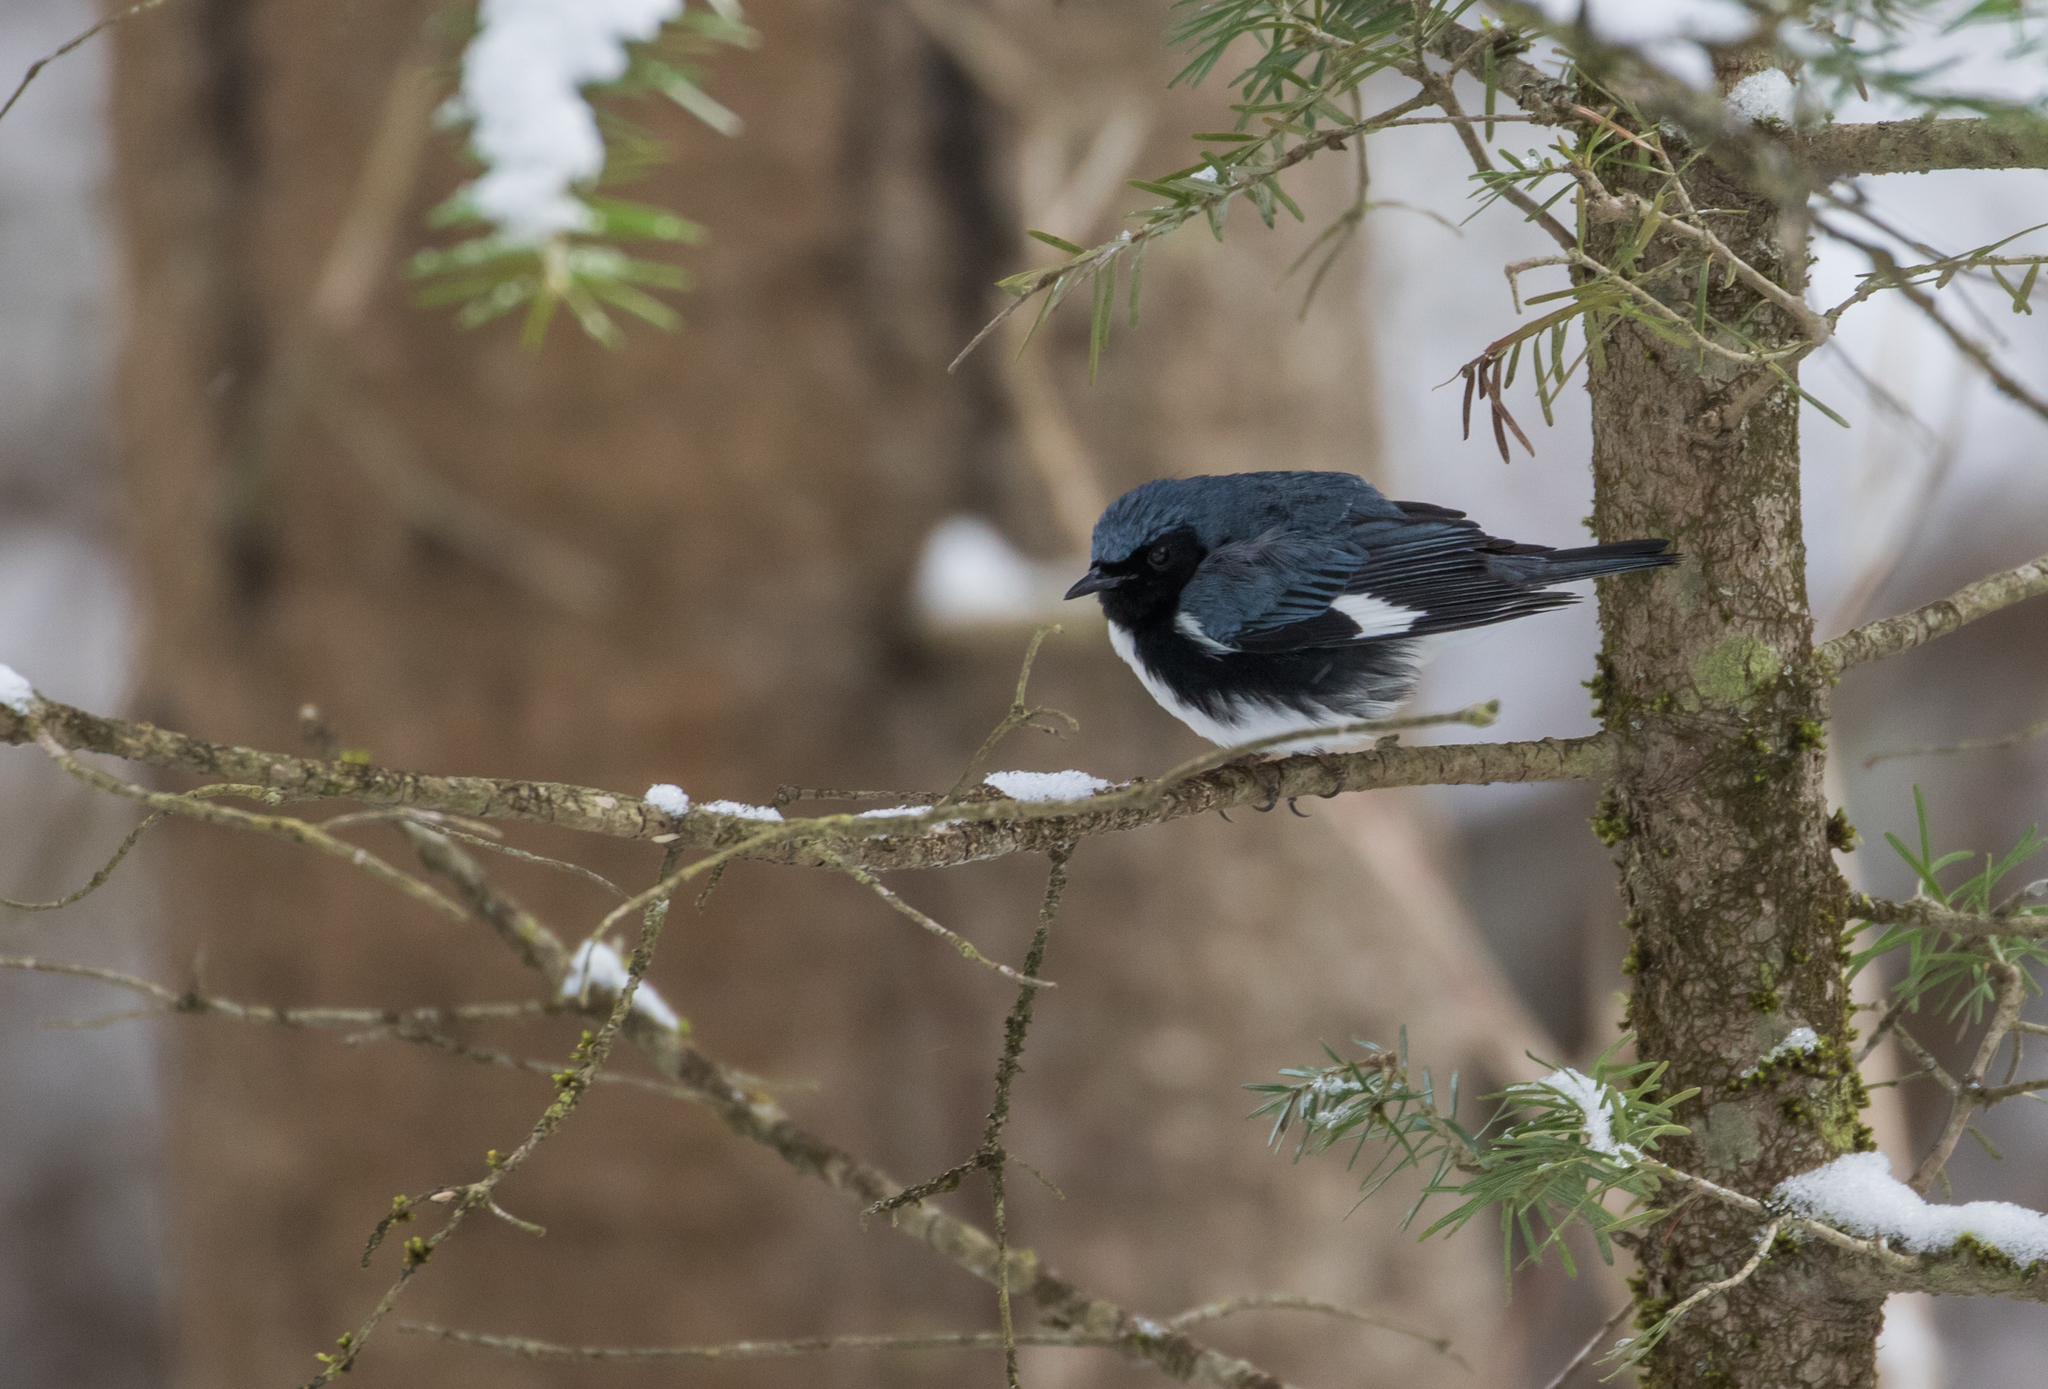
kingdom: Animalia
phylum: Chordata
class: Aves
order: Passeriformes
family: Parulidae
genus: Setophaga
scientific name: Setophaga caerulescens
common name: Black-throated blue warbler
